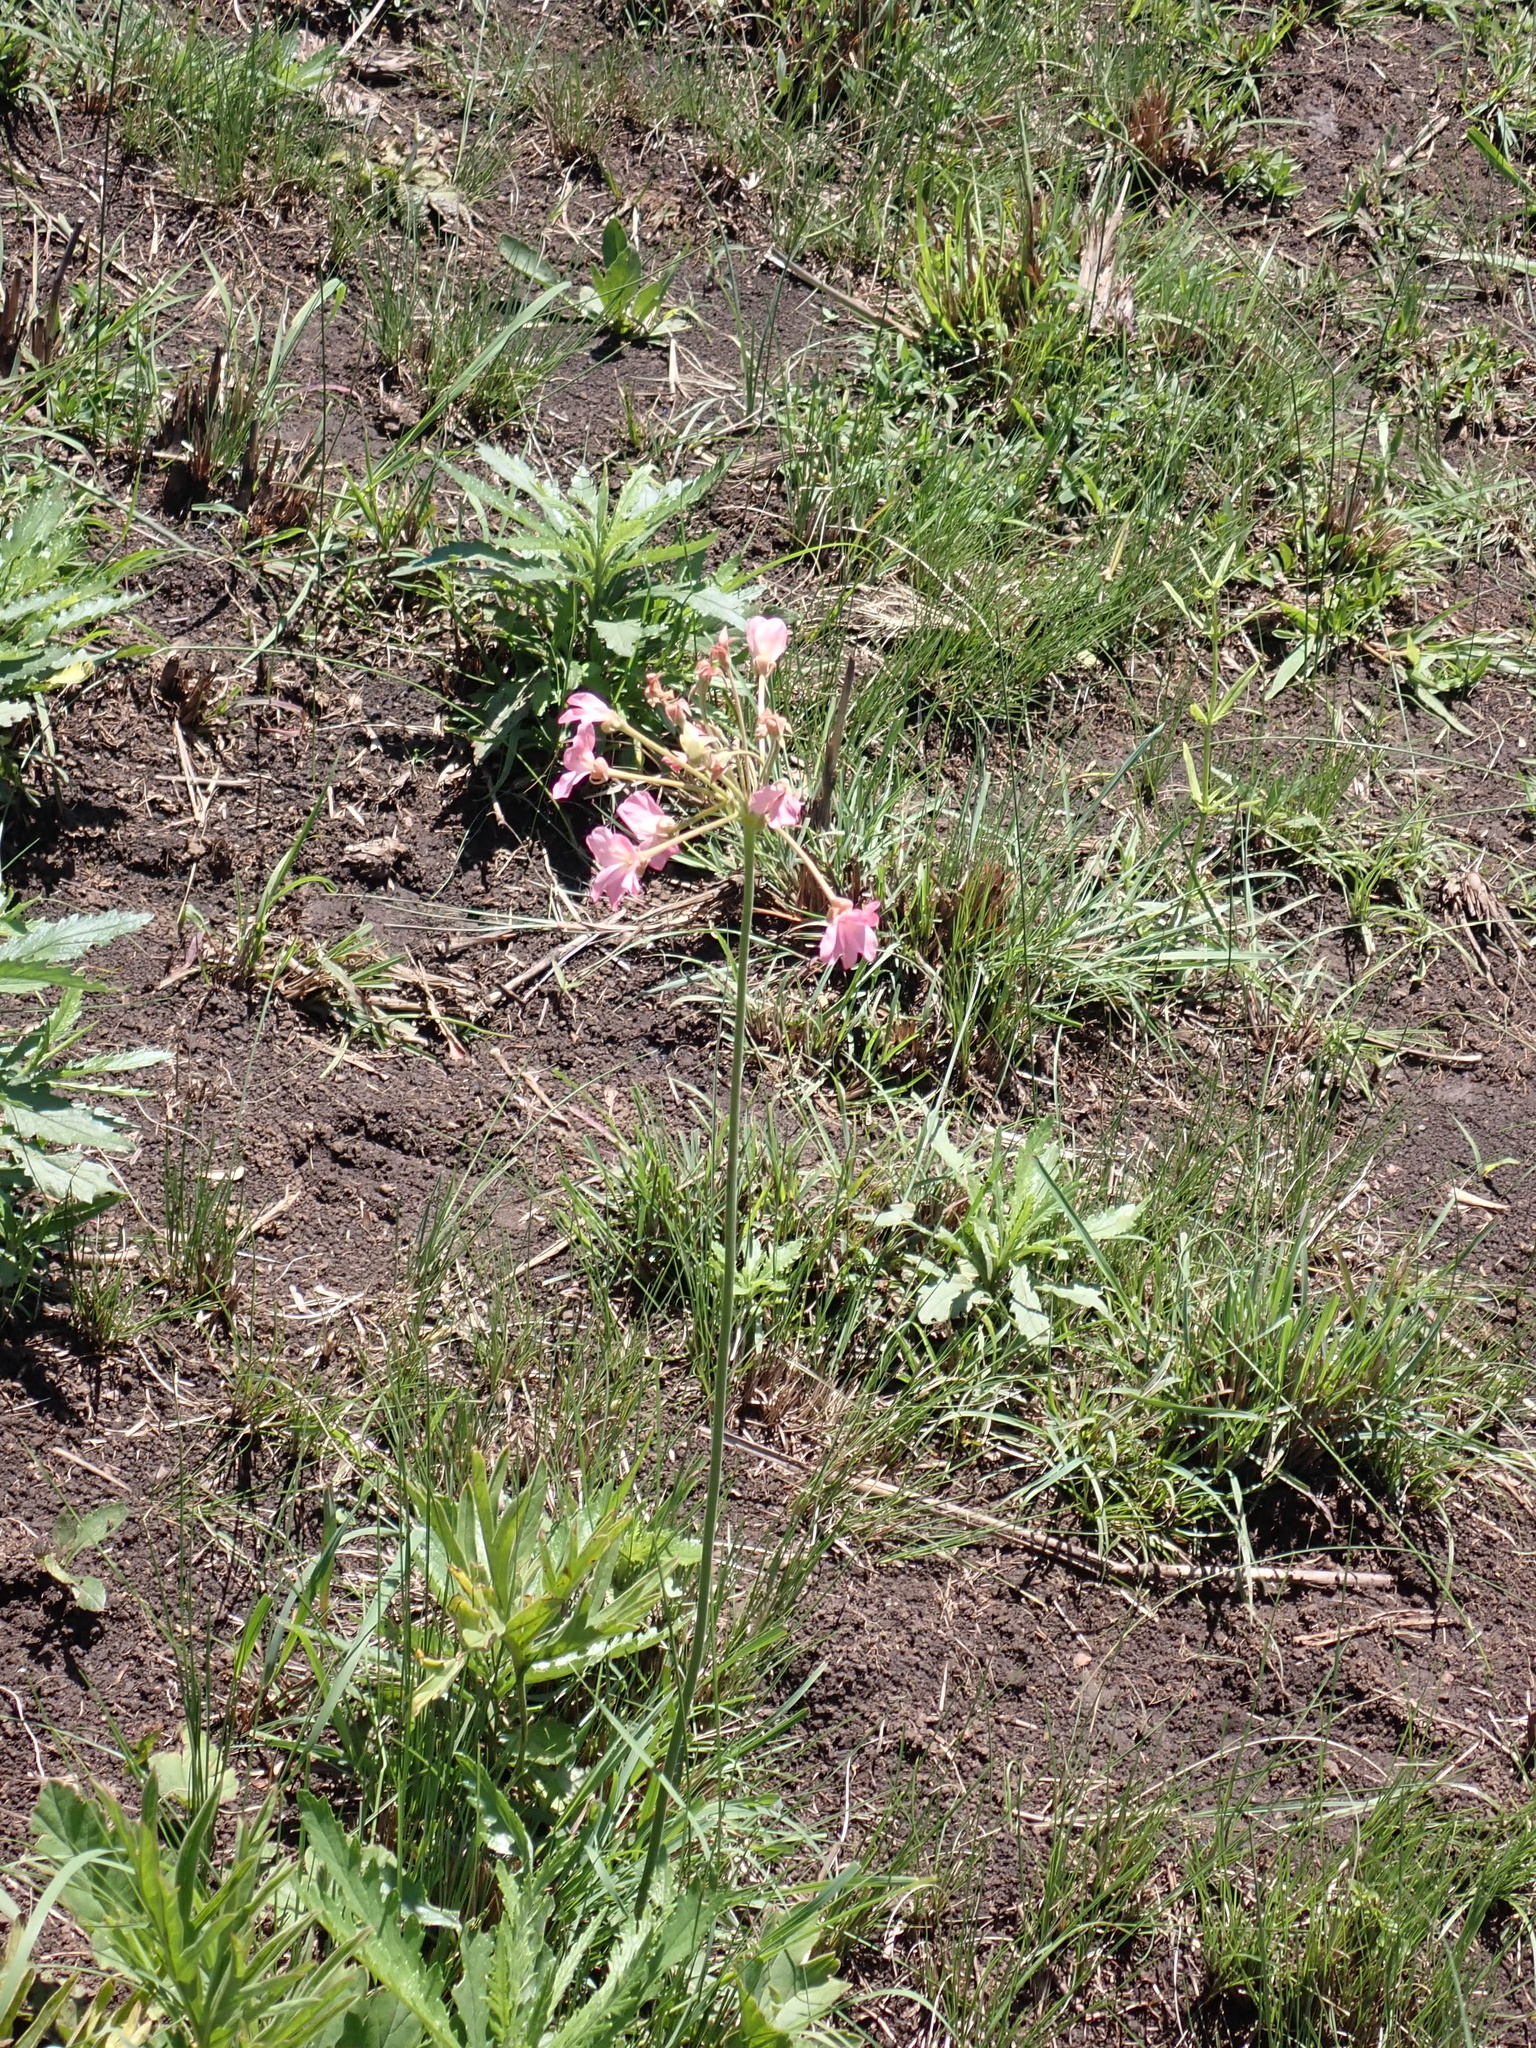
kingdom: Plantae
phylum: Tracheophyta
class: Magnoliopsida
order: Geraniales
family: Geraniaceae
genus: Pelargonium
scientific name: Pelargonium luridum
